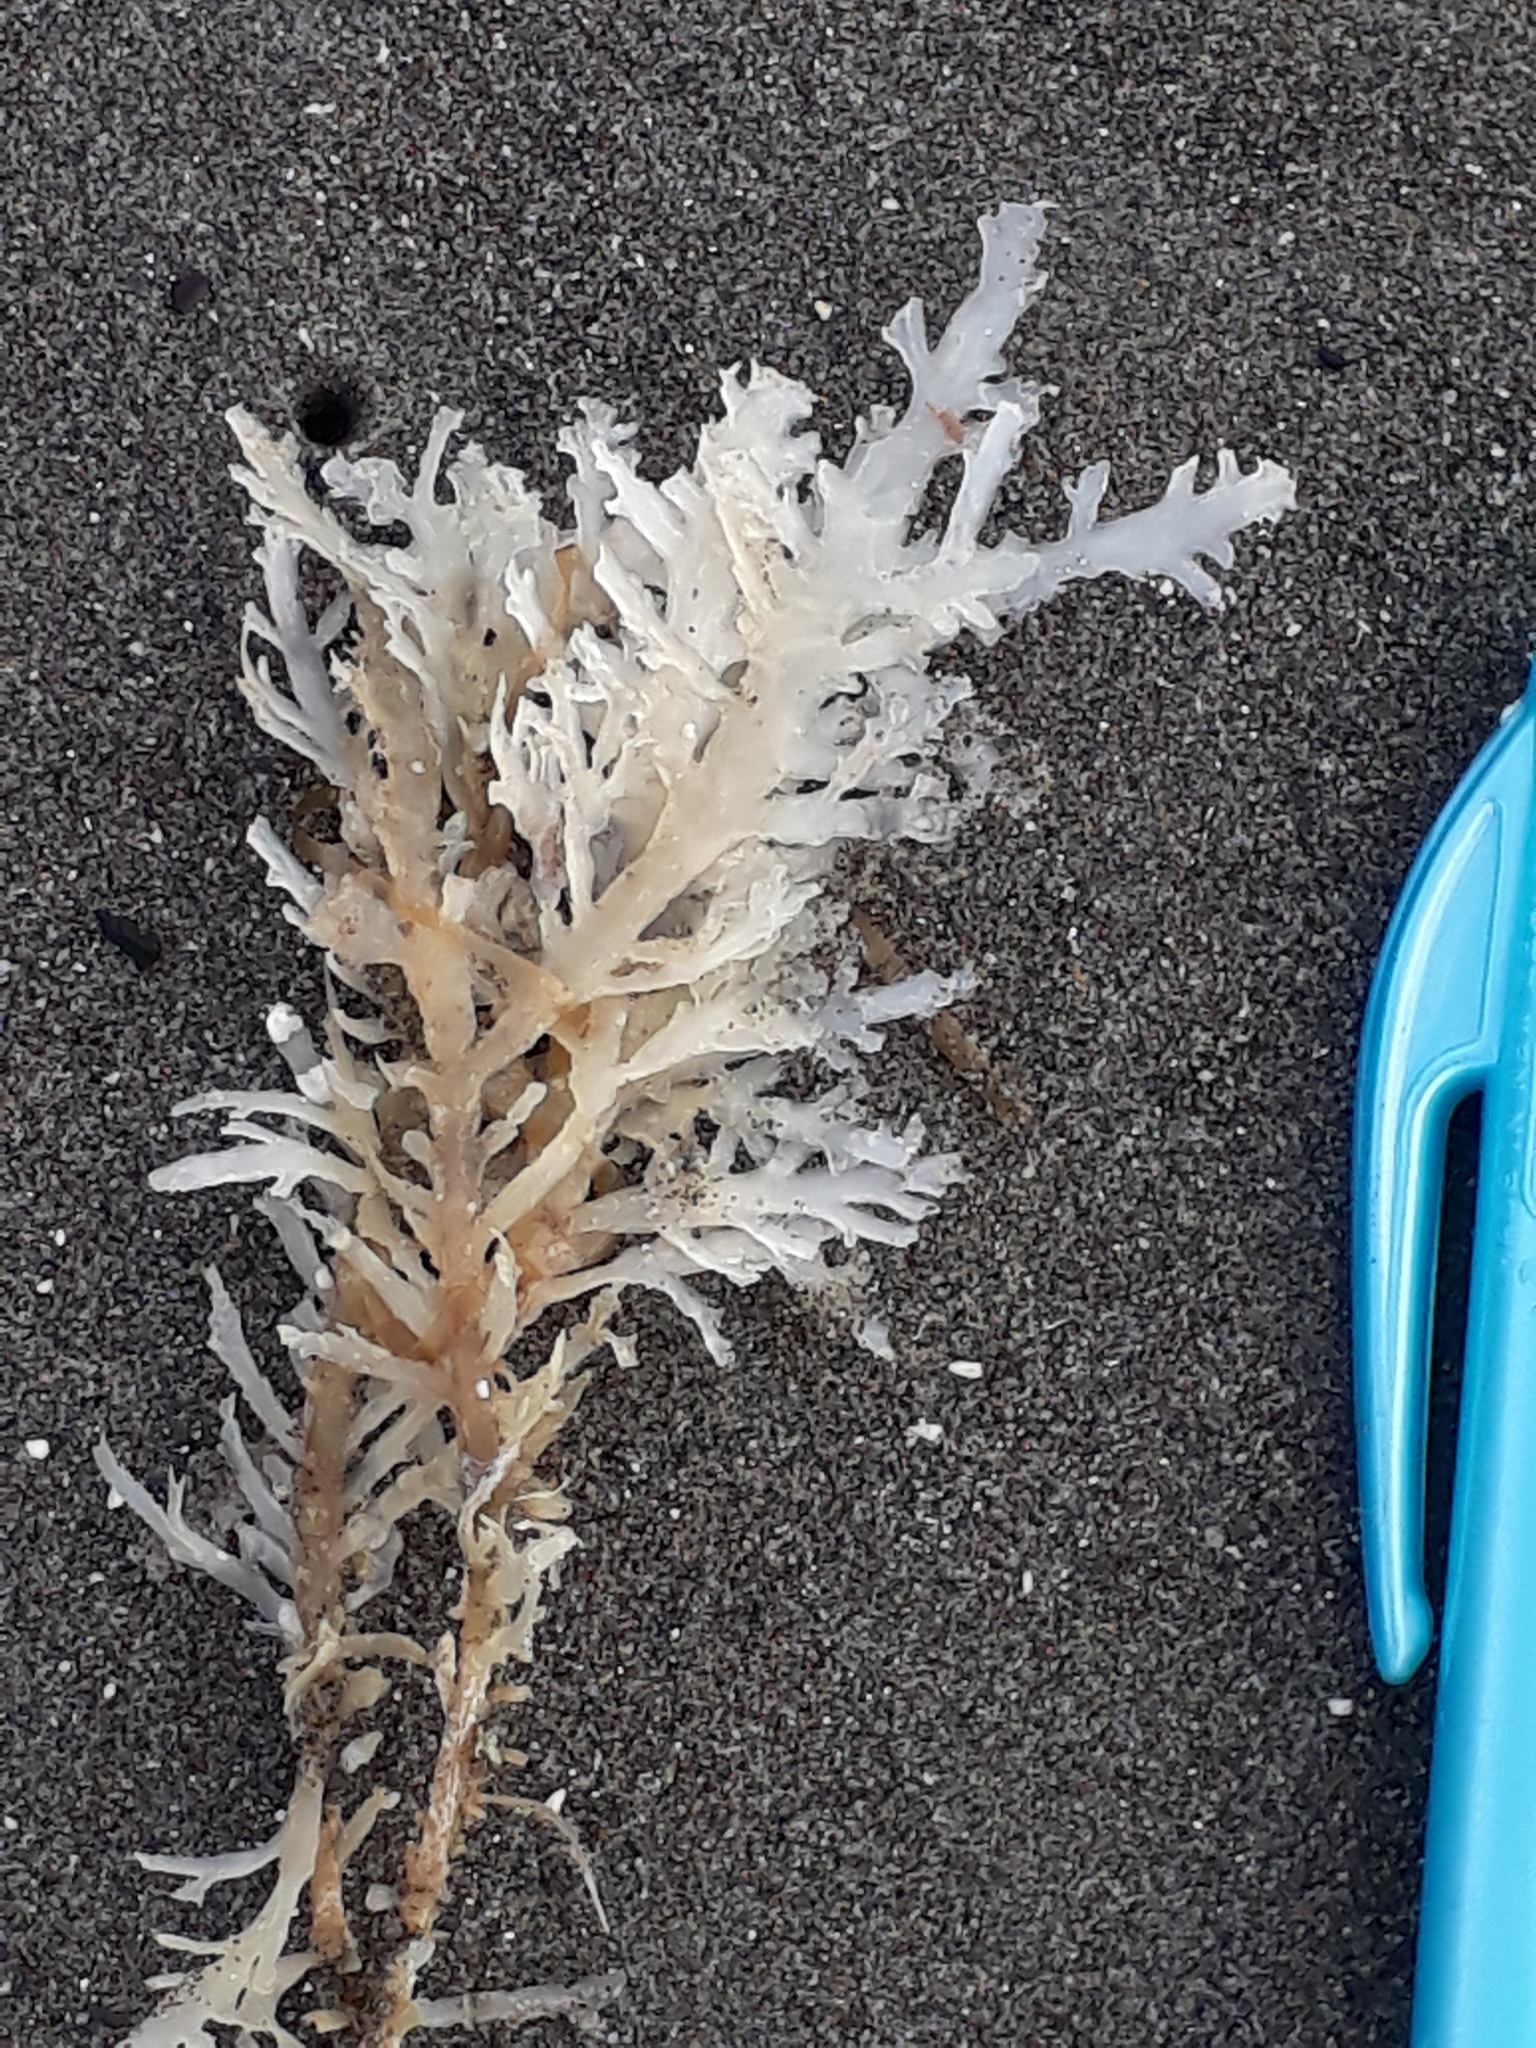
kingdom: Plantae
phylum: Rhodophyta
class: Florideophyceae
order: Gelidiales
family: Pterocladiaceae
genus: Pterocladia
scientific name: Pterocladia lucida
